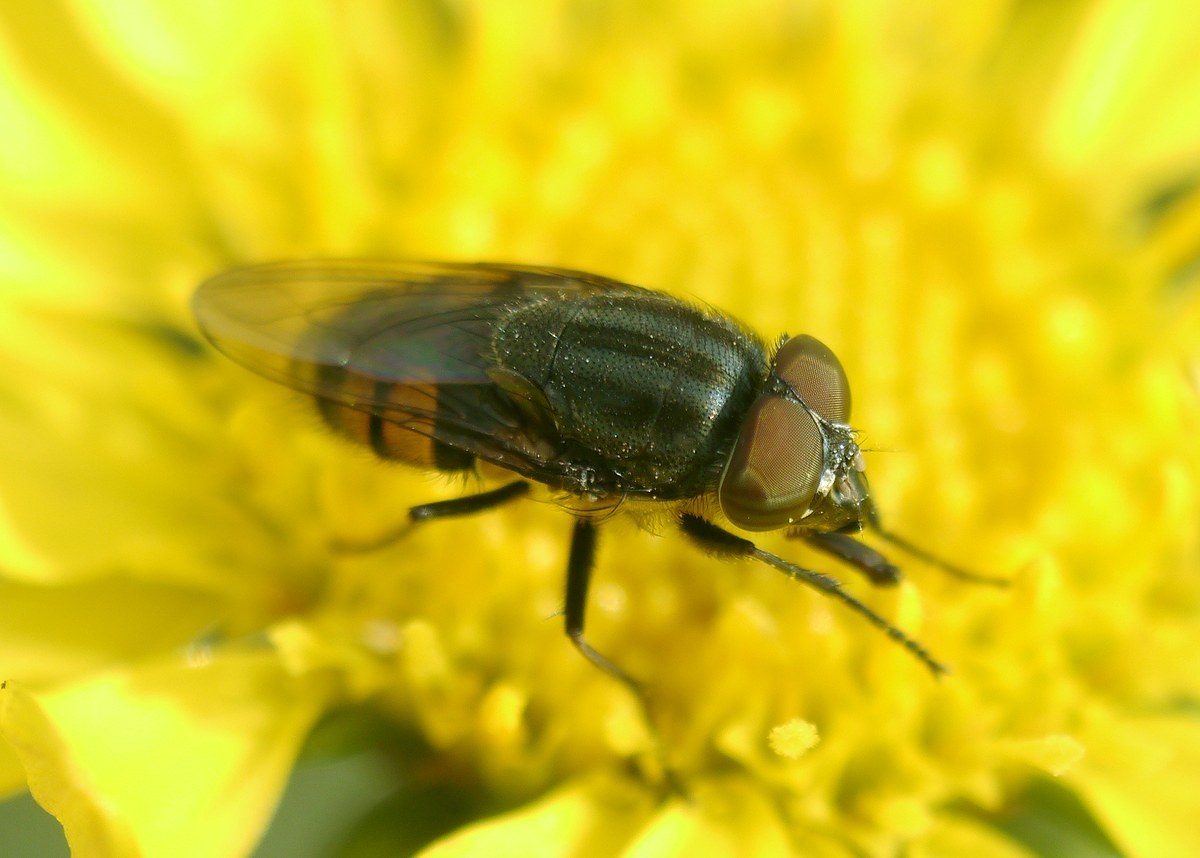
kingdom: Animalia
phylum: Arthropoda
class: Insecta
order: Diptera
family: Calliphoridae
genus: Stomorhina
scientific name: Stomorhina lunata
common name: Locust blowfly
